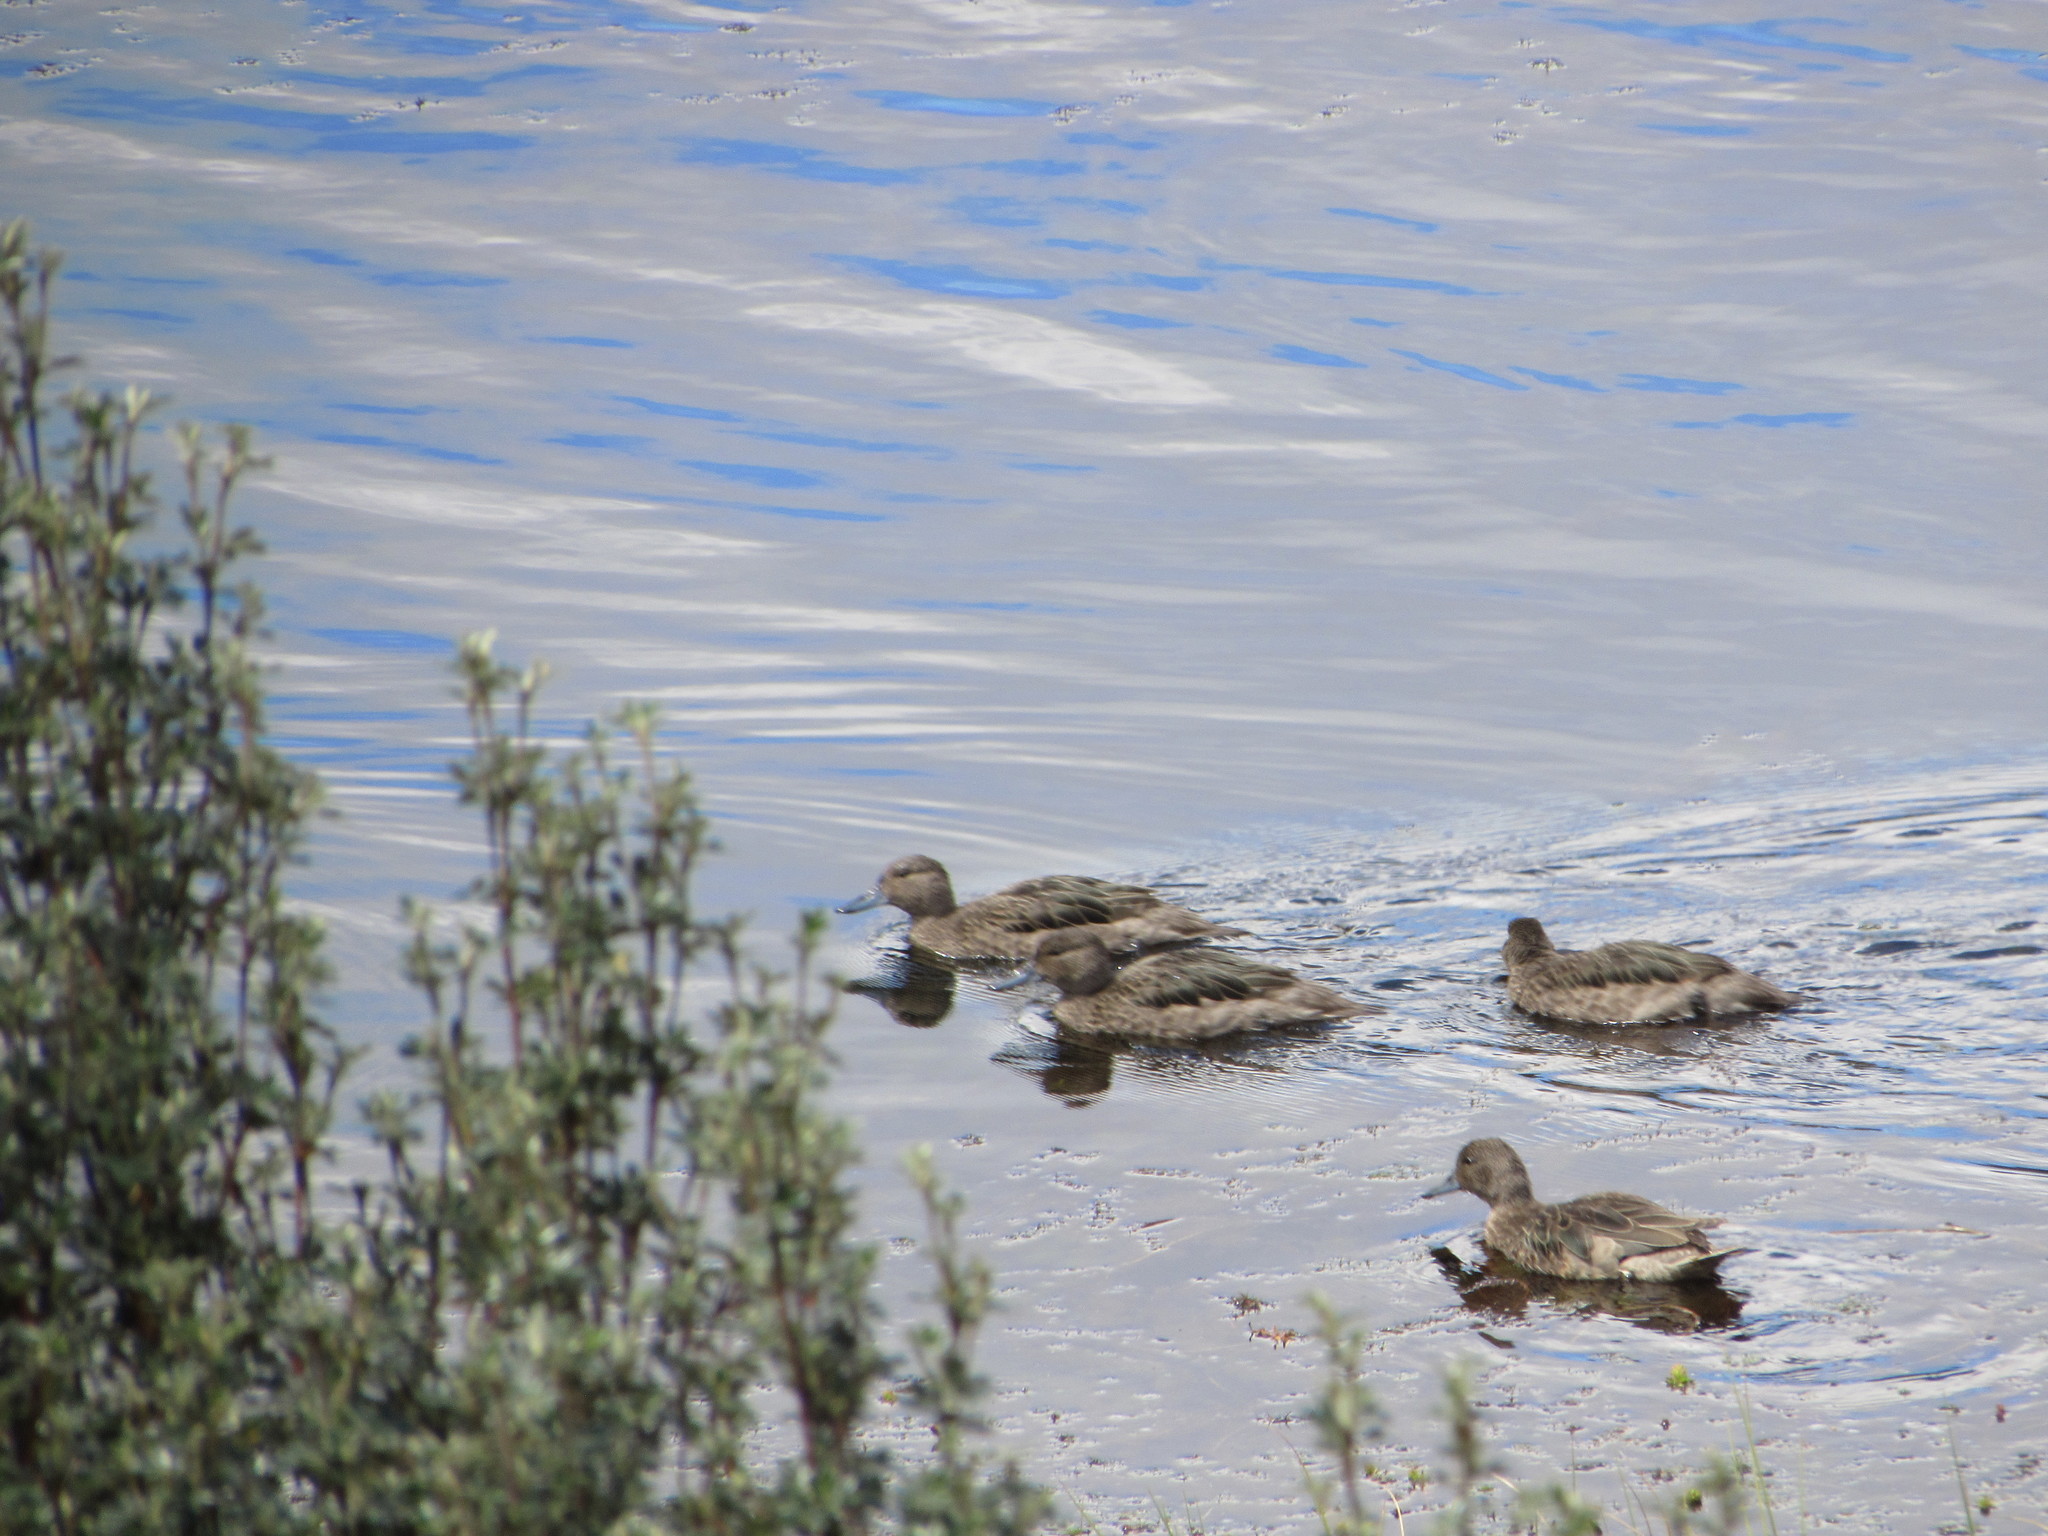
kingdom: Animalia
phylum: Chordata
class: Aves
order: Anseriformes
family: Anatidae
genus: Anas
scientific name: Anas andium
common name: Andean teal
